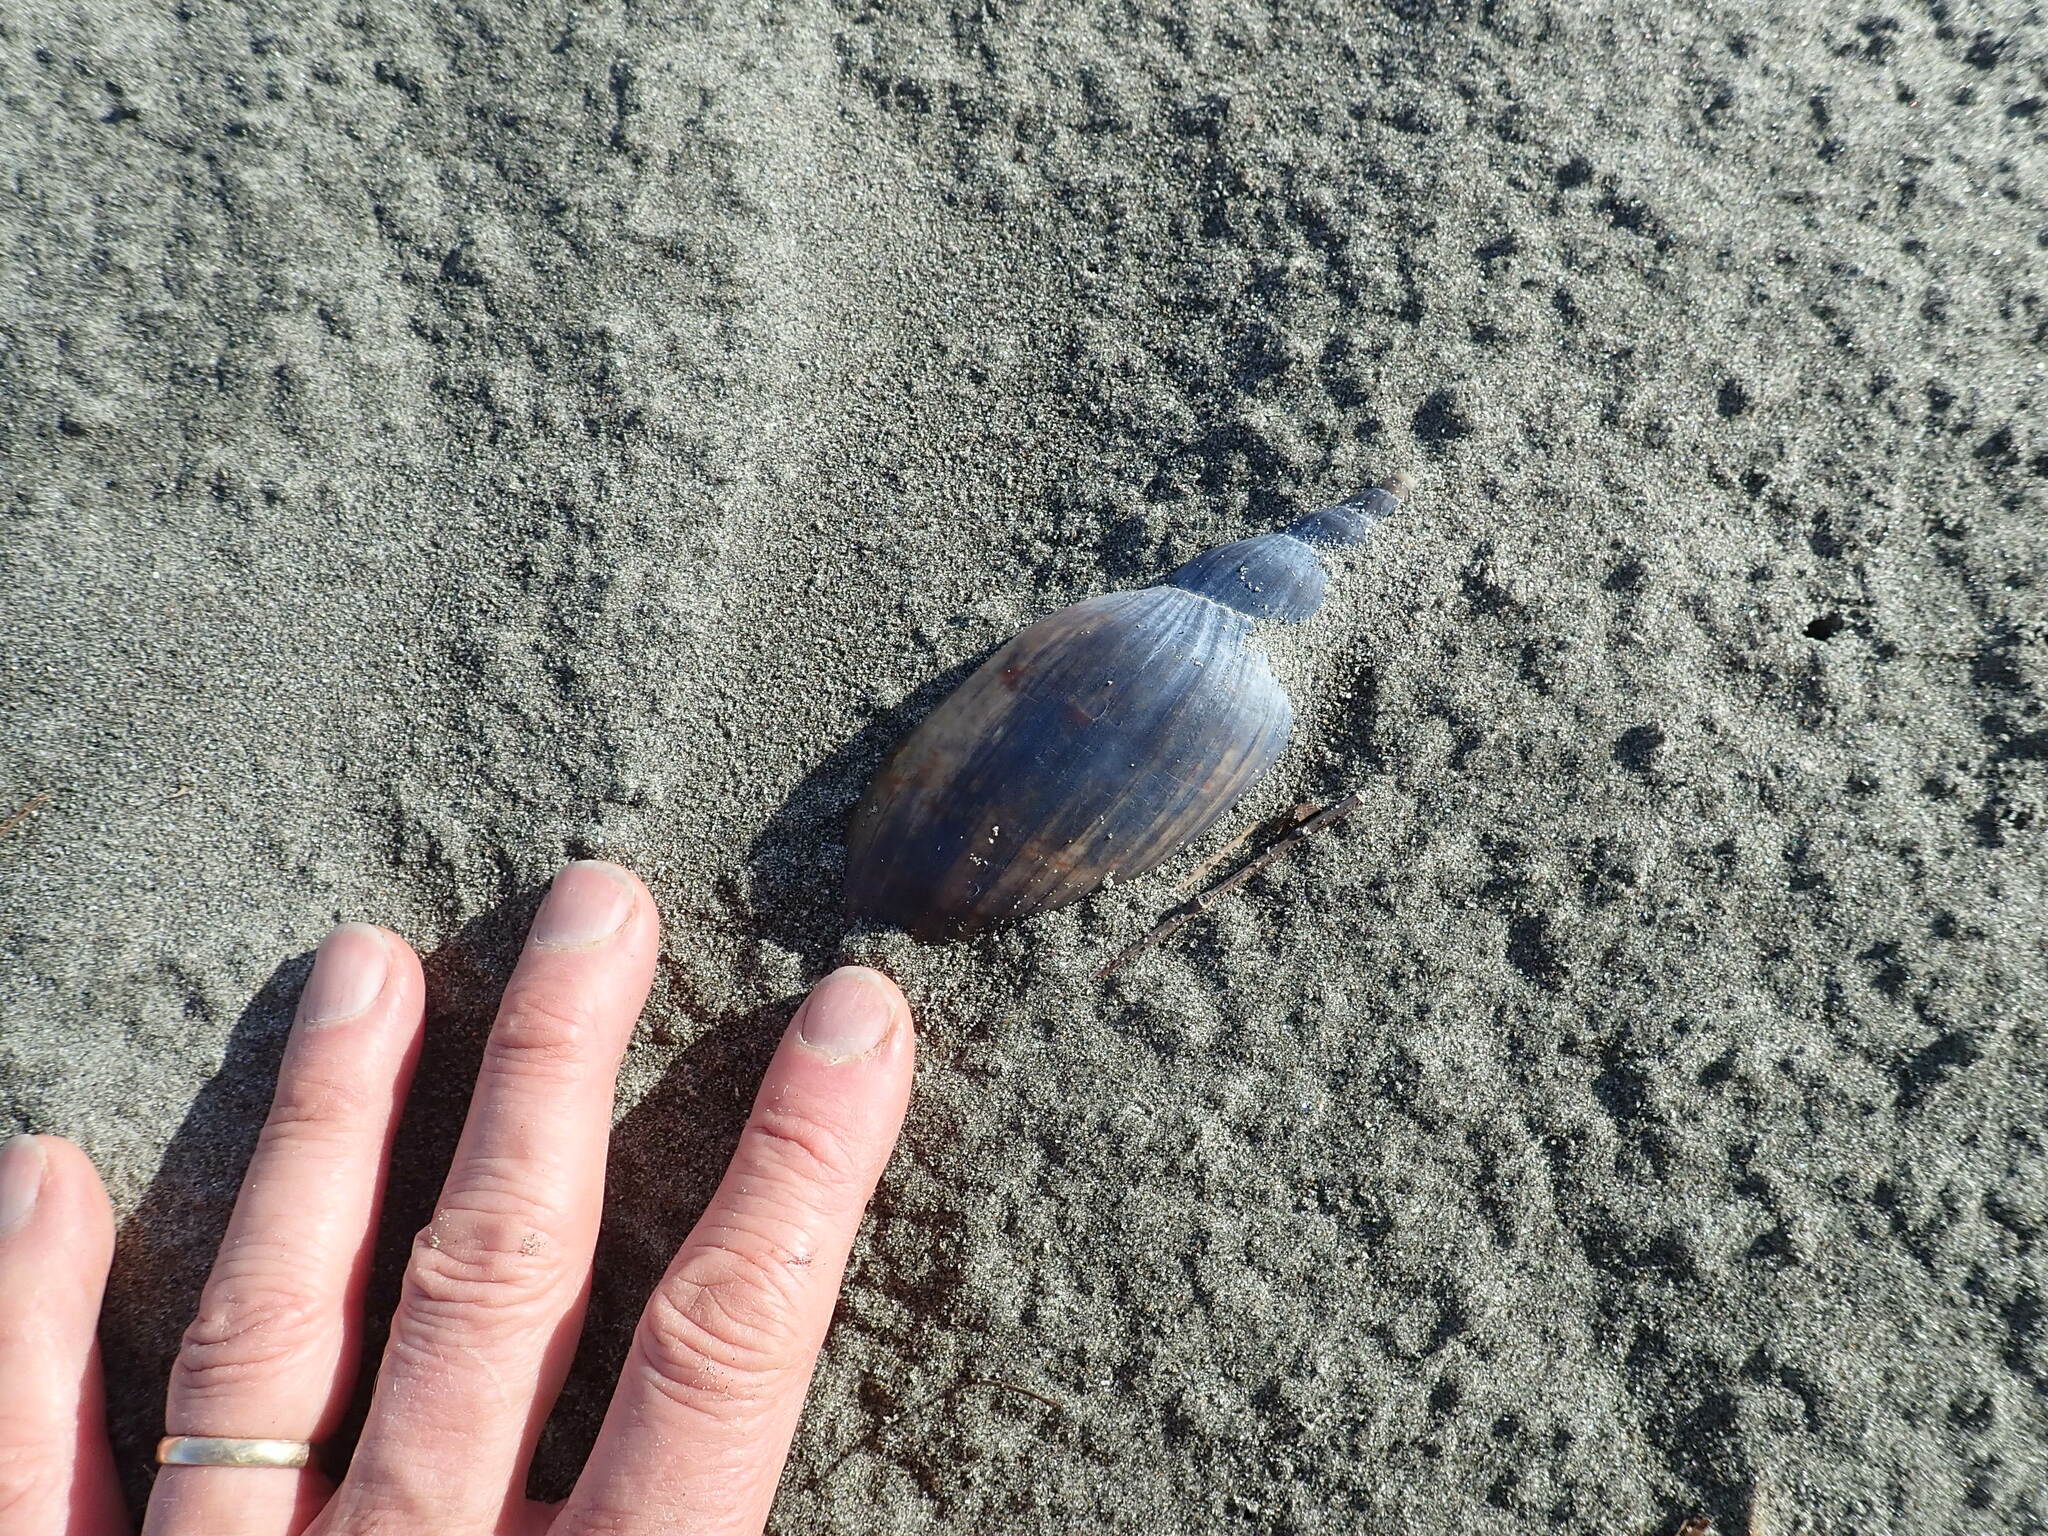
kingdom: Animalia
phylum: Mollusca
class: Gastropoda
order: Neogastropoda
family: Volutidae
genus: Alcithoe
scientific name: Alcithoe arabica
